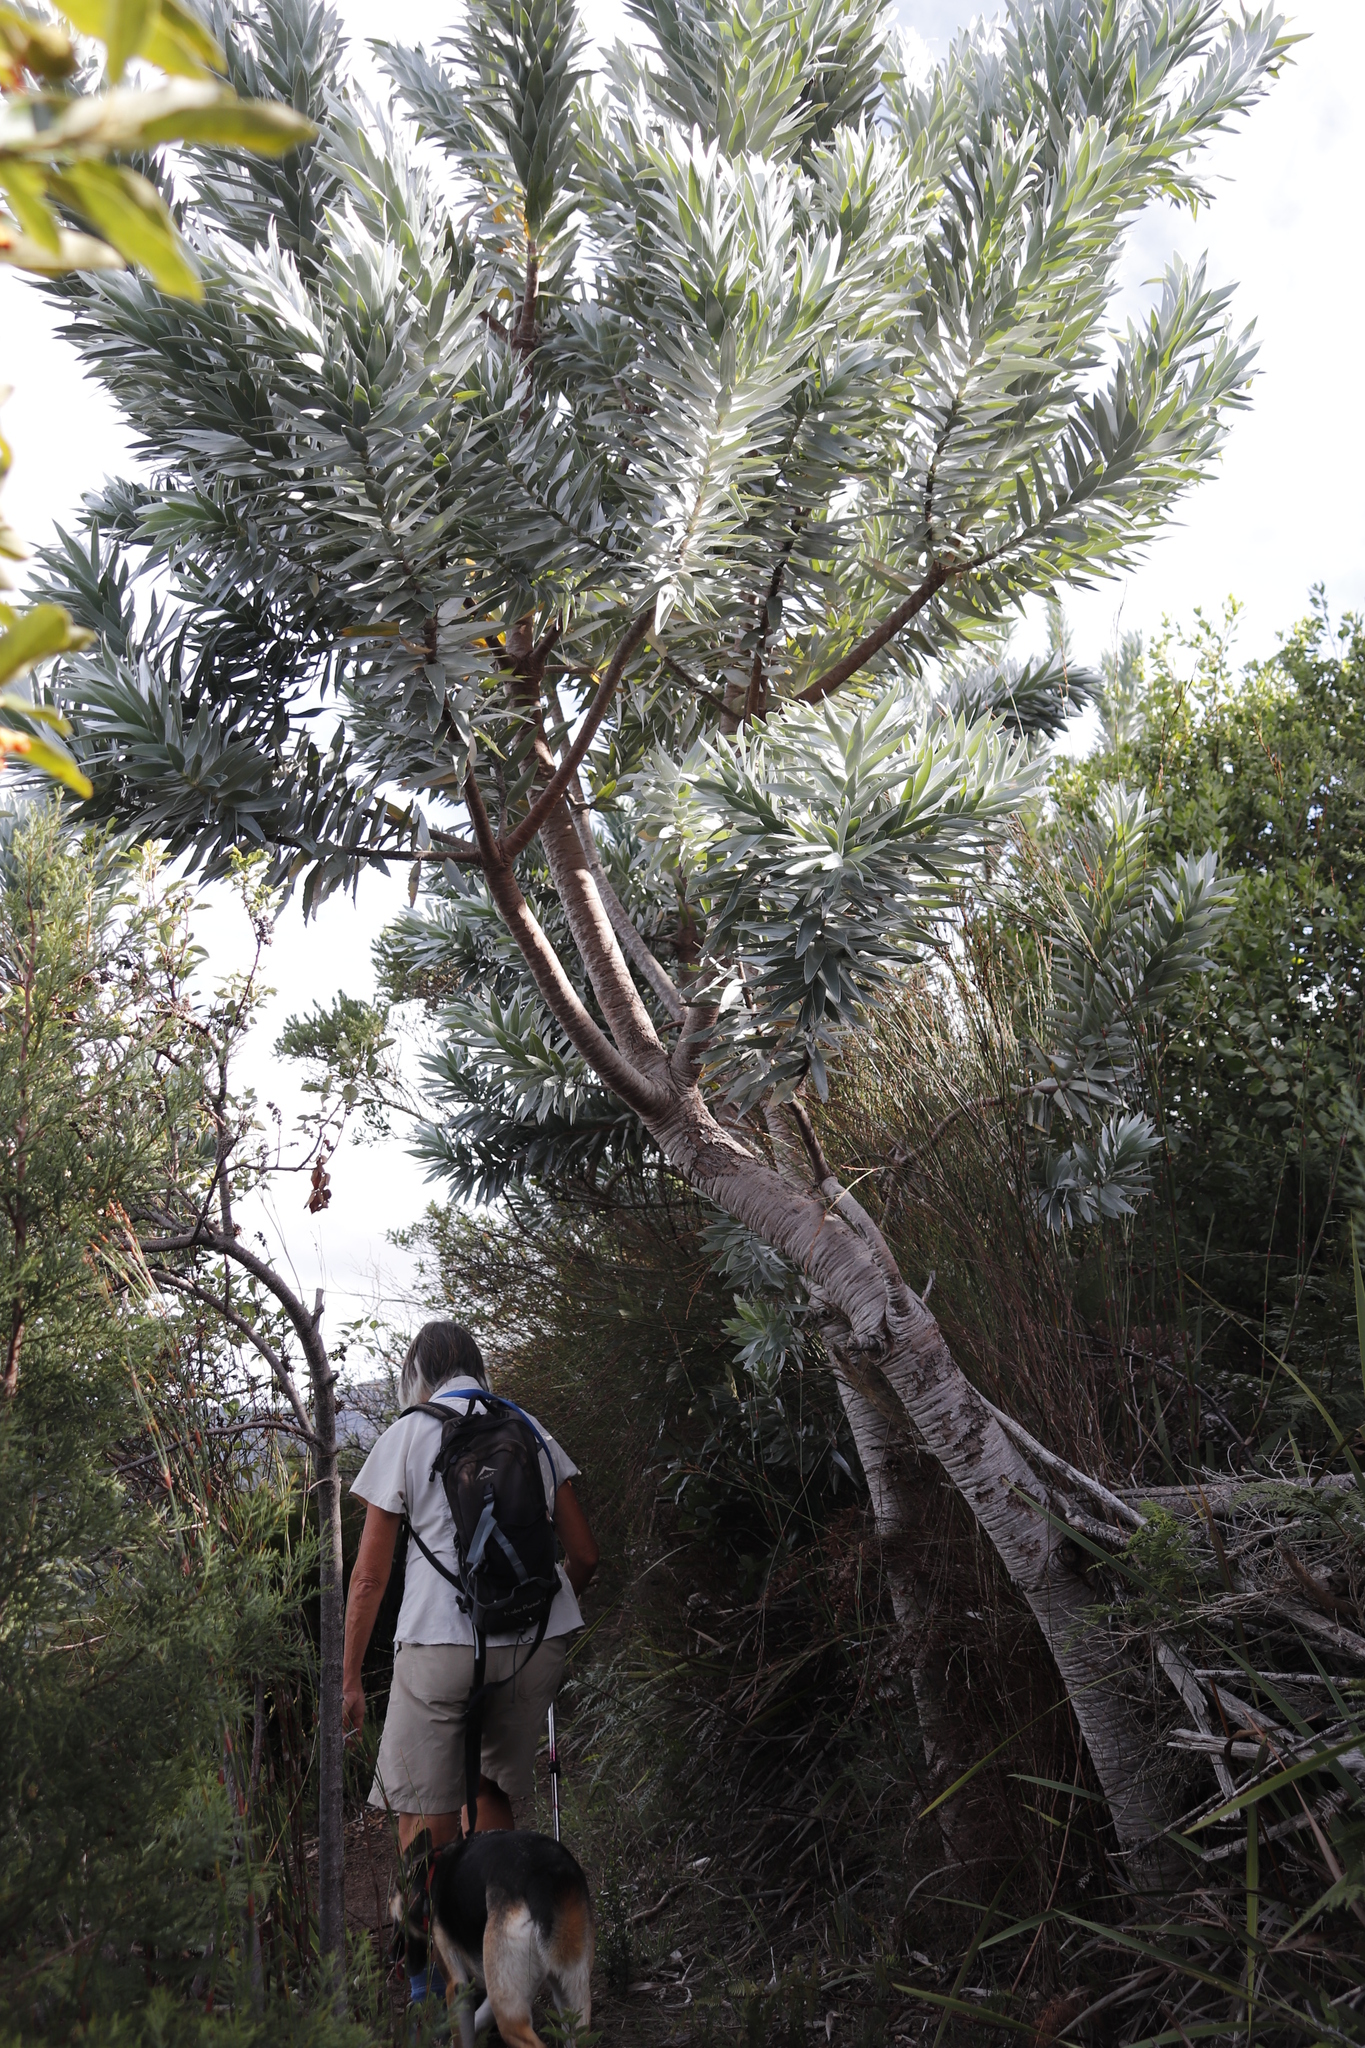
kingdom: Plantae
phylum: Tracheophyta
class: Magnoliopsida
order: Proteales
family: Proteaceae
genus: Leucadendron
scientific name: Leucadendron argenteum
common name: Cape silver tree
